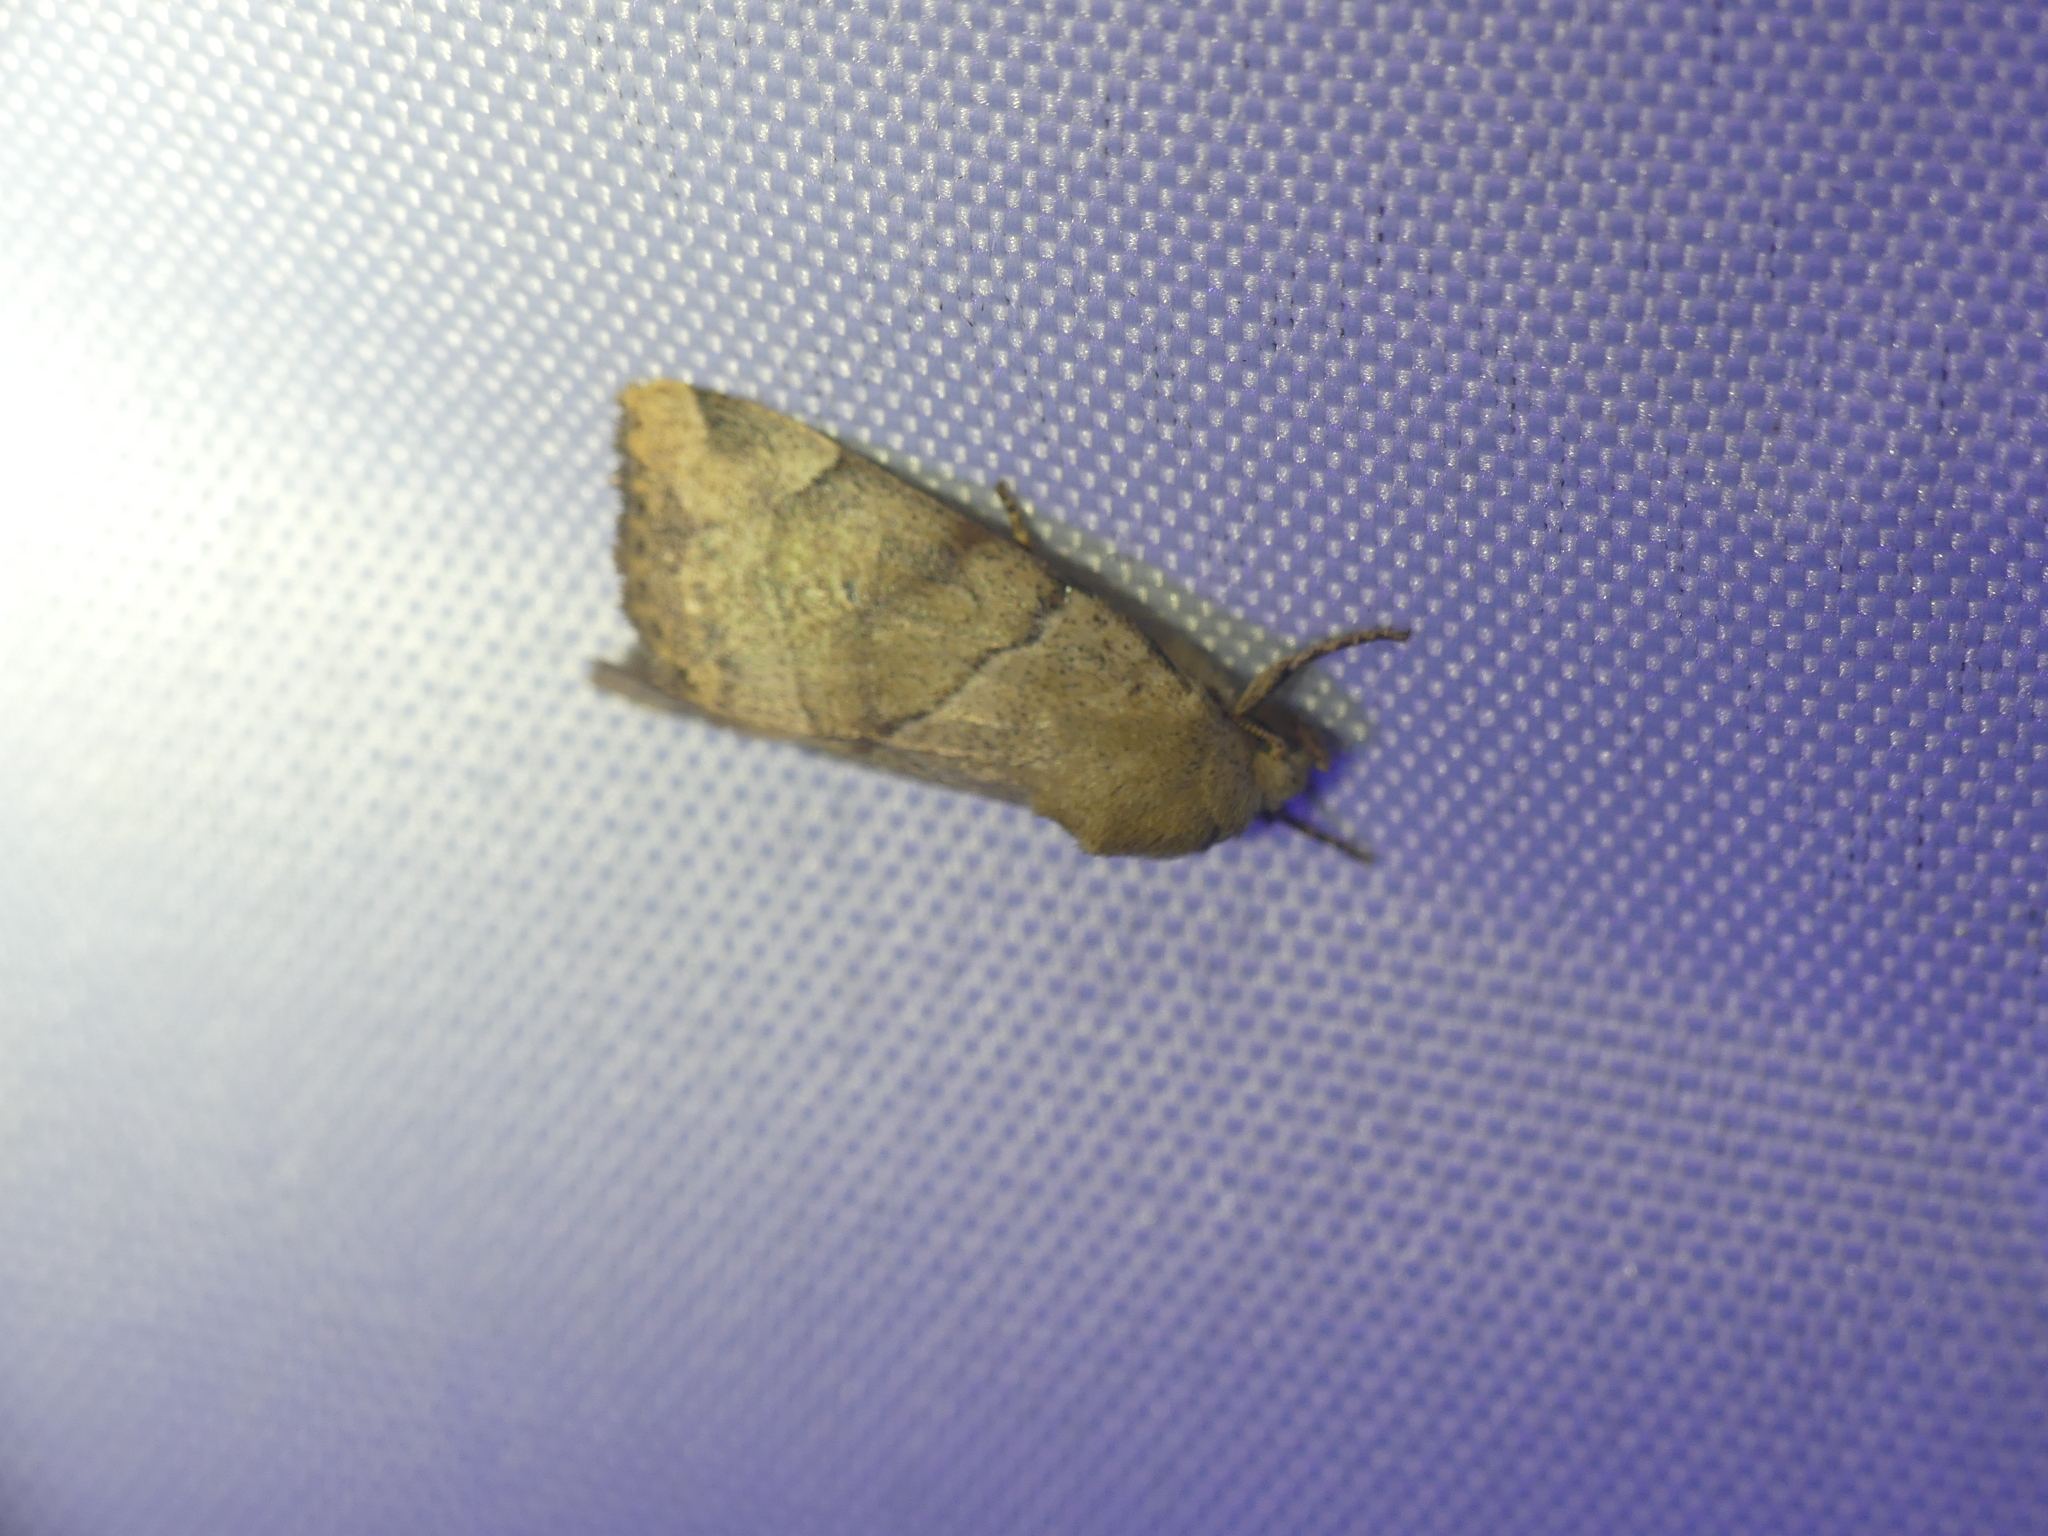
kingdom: Animalia
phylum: Arthropoda
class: Insecta
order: Lepidoptera
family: Noctuidae
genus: Cosmia
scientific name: Cosmia trapezina
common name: Dun-bar
